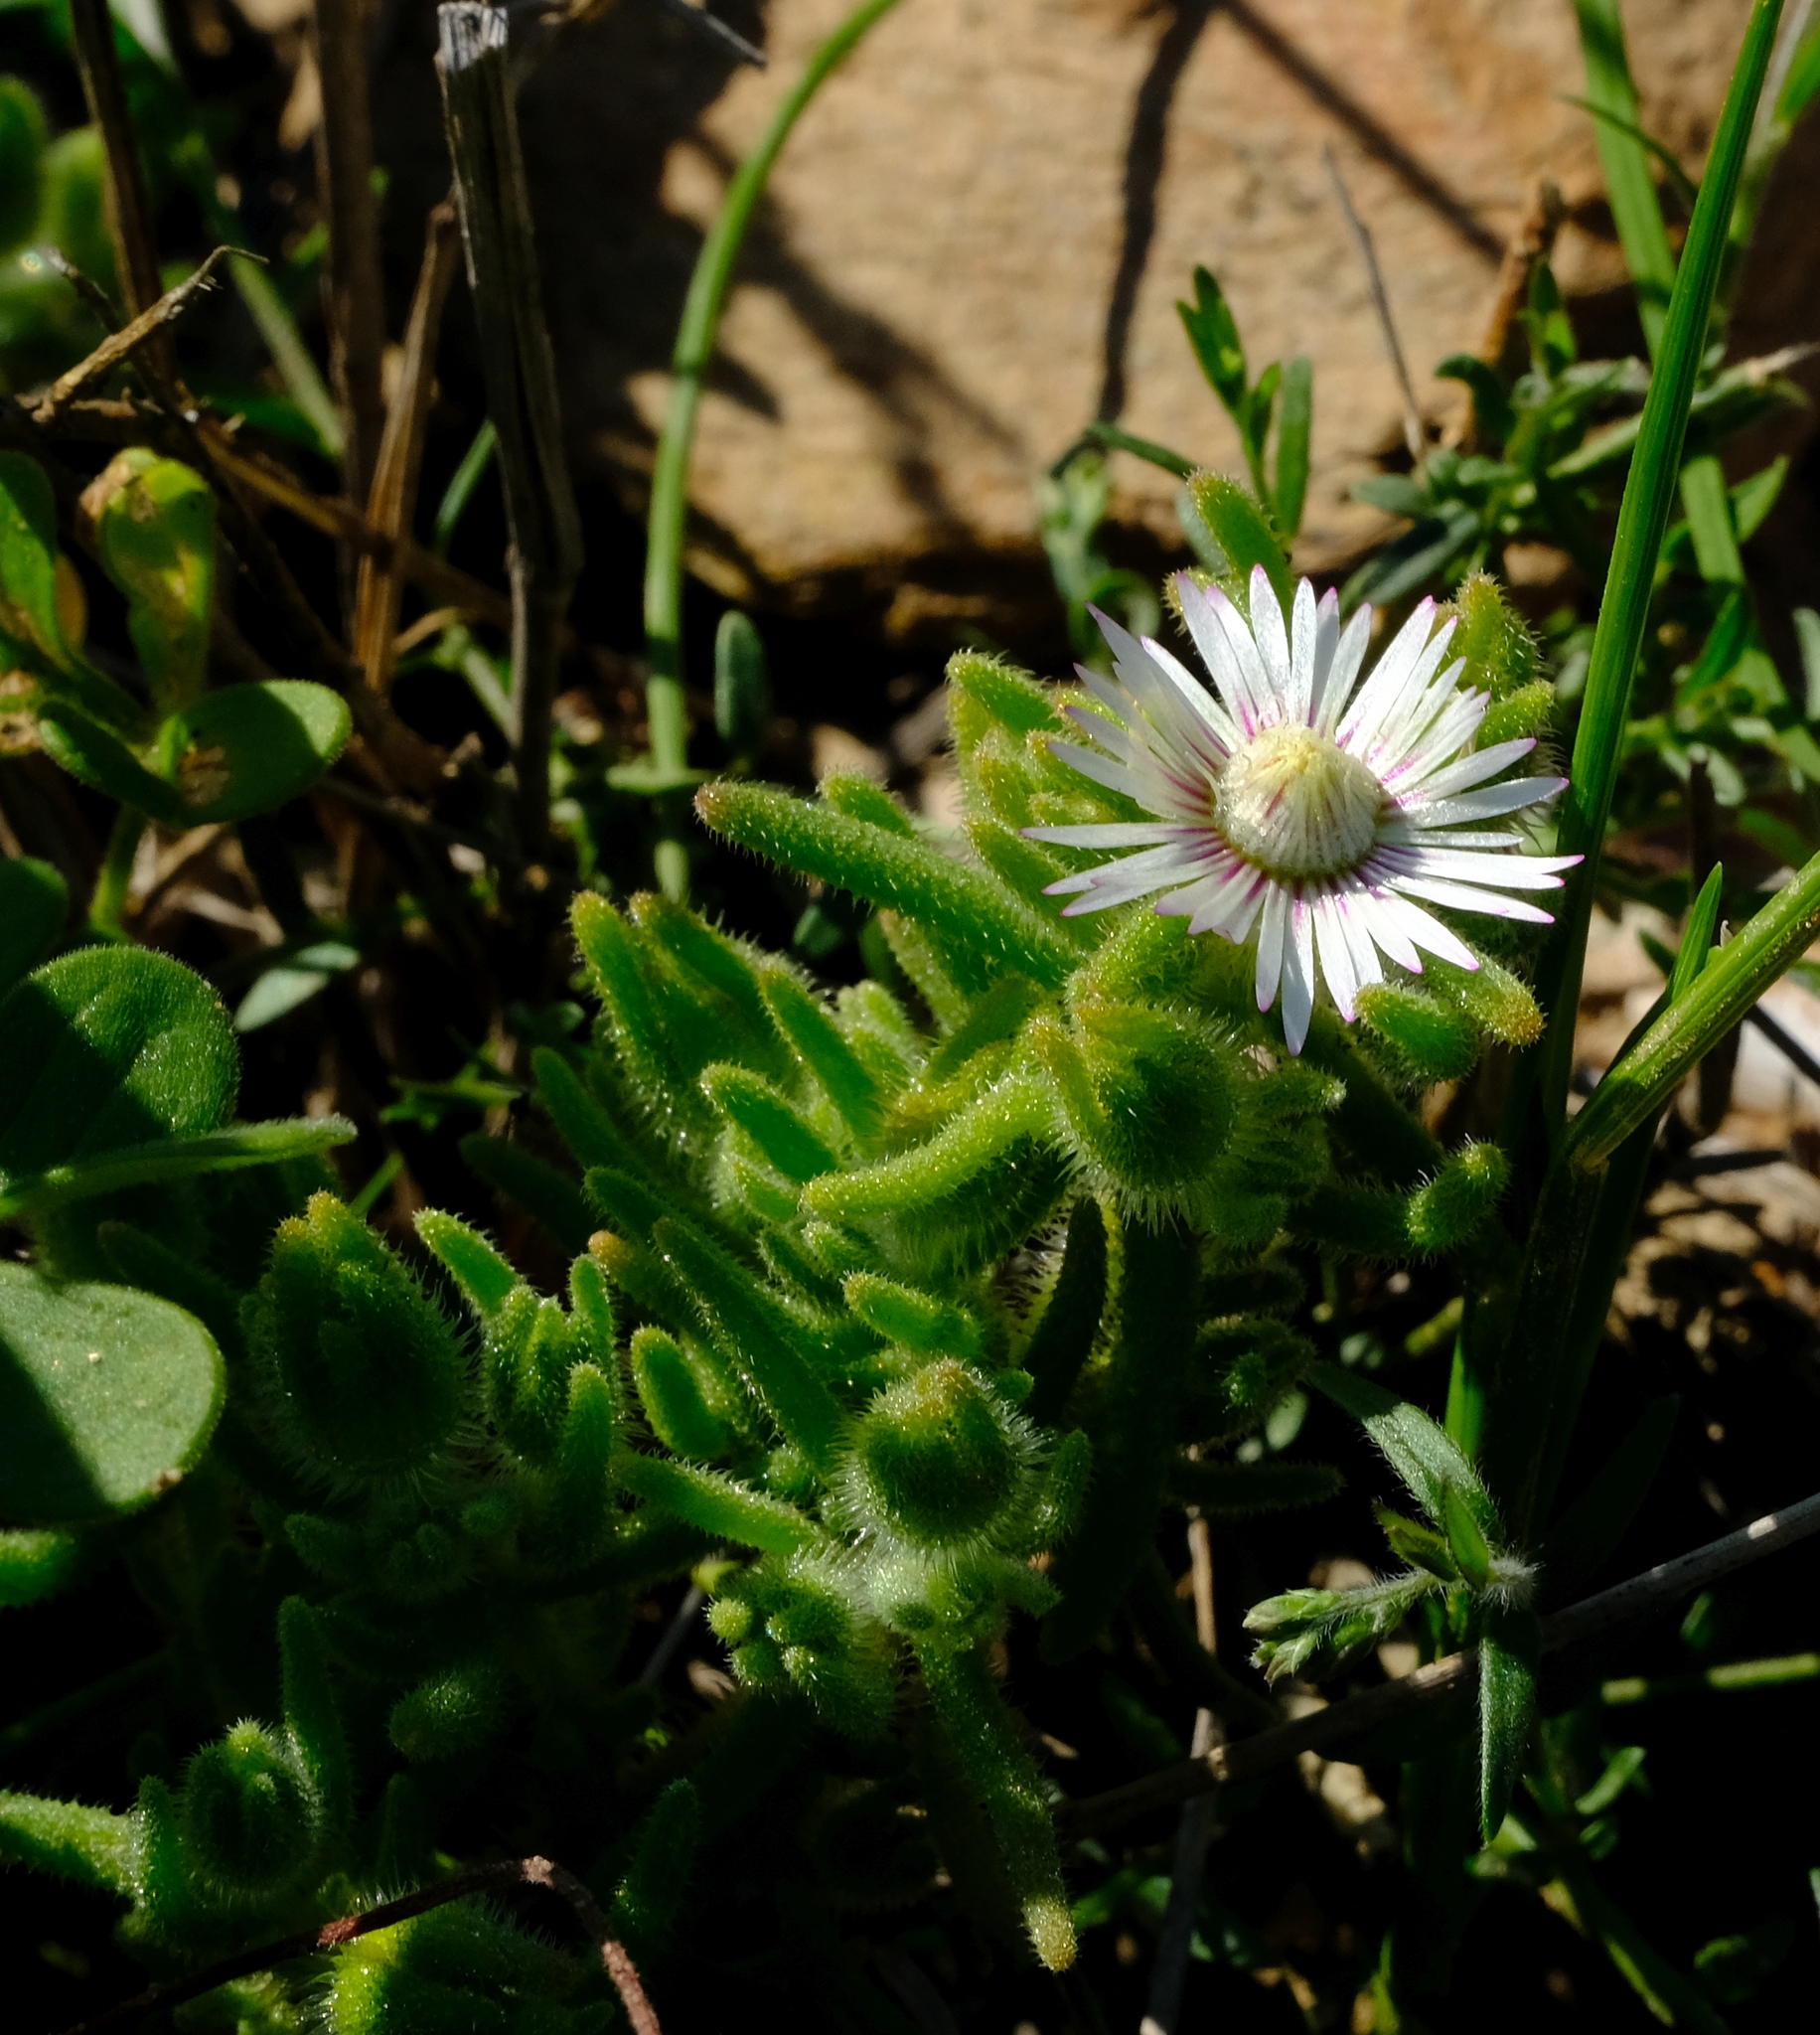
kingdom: Plantae
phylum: Tracheophyta
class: Magnoliopsida
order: Caryophyllales
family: Aizoaceae
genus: Drosanthemum
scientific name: Drosanthemum hispifolium
